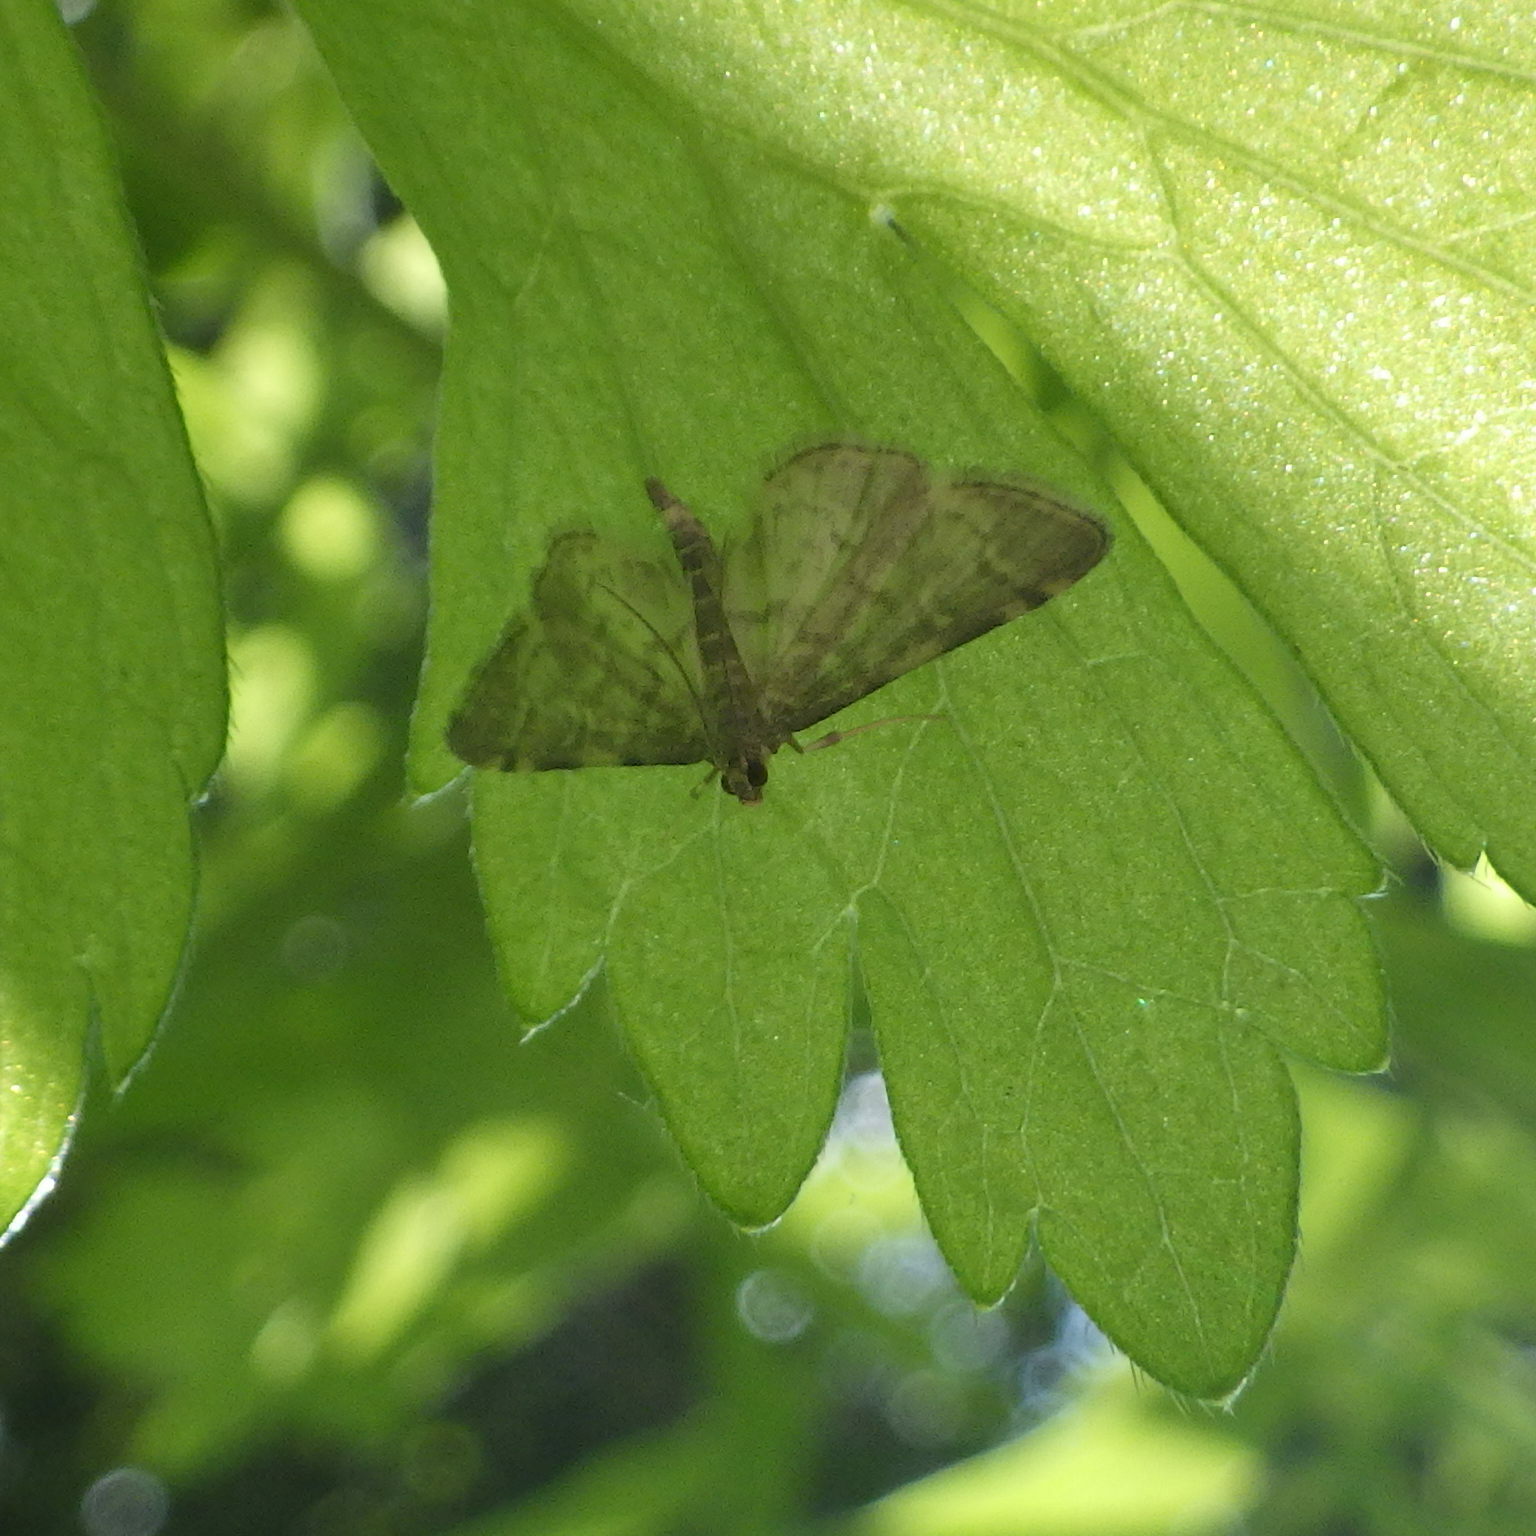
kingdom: Animalia
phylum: Arthropoda
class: Insecta
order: Lepidoptera
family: Crambidae
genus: Anageshna
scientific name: Anageshna primordialis
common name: Yellow-spotted webworm moth
